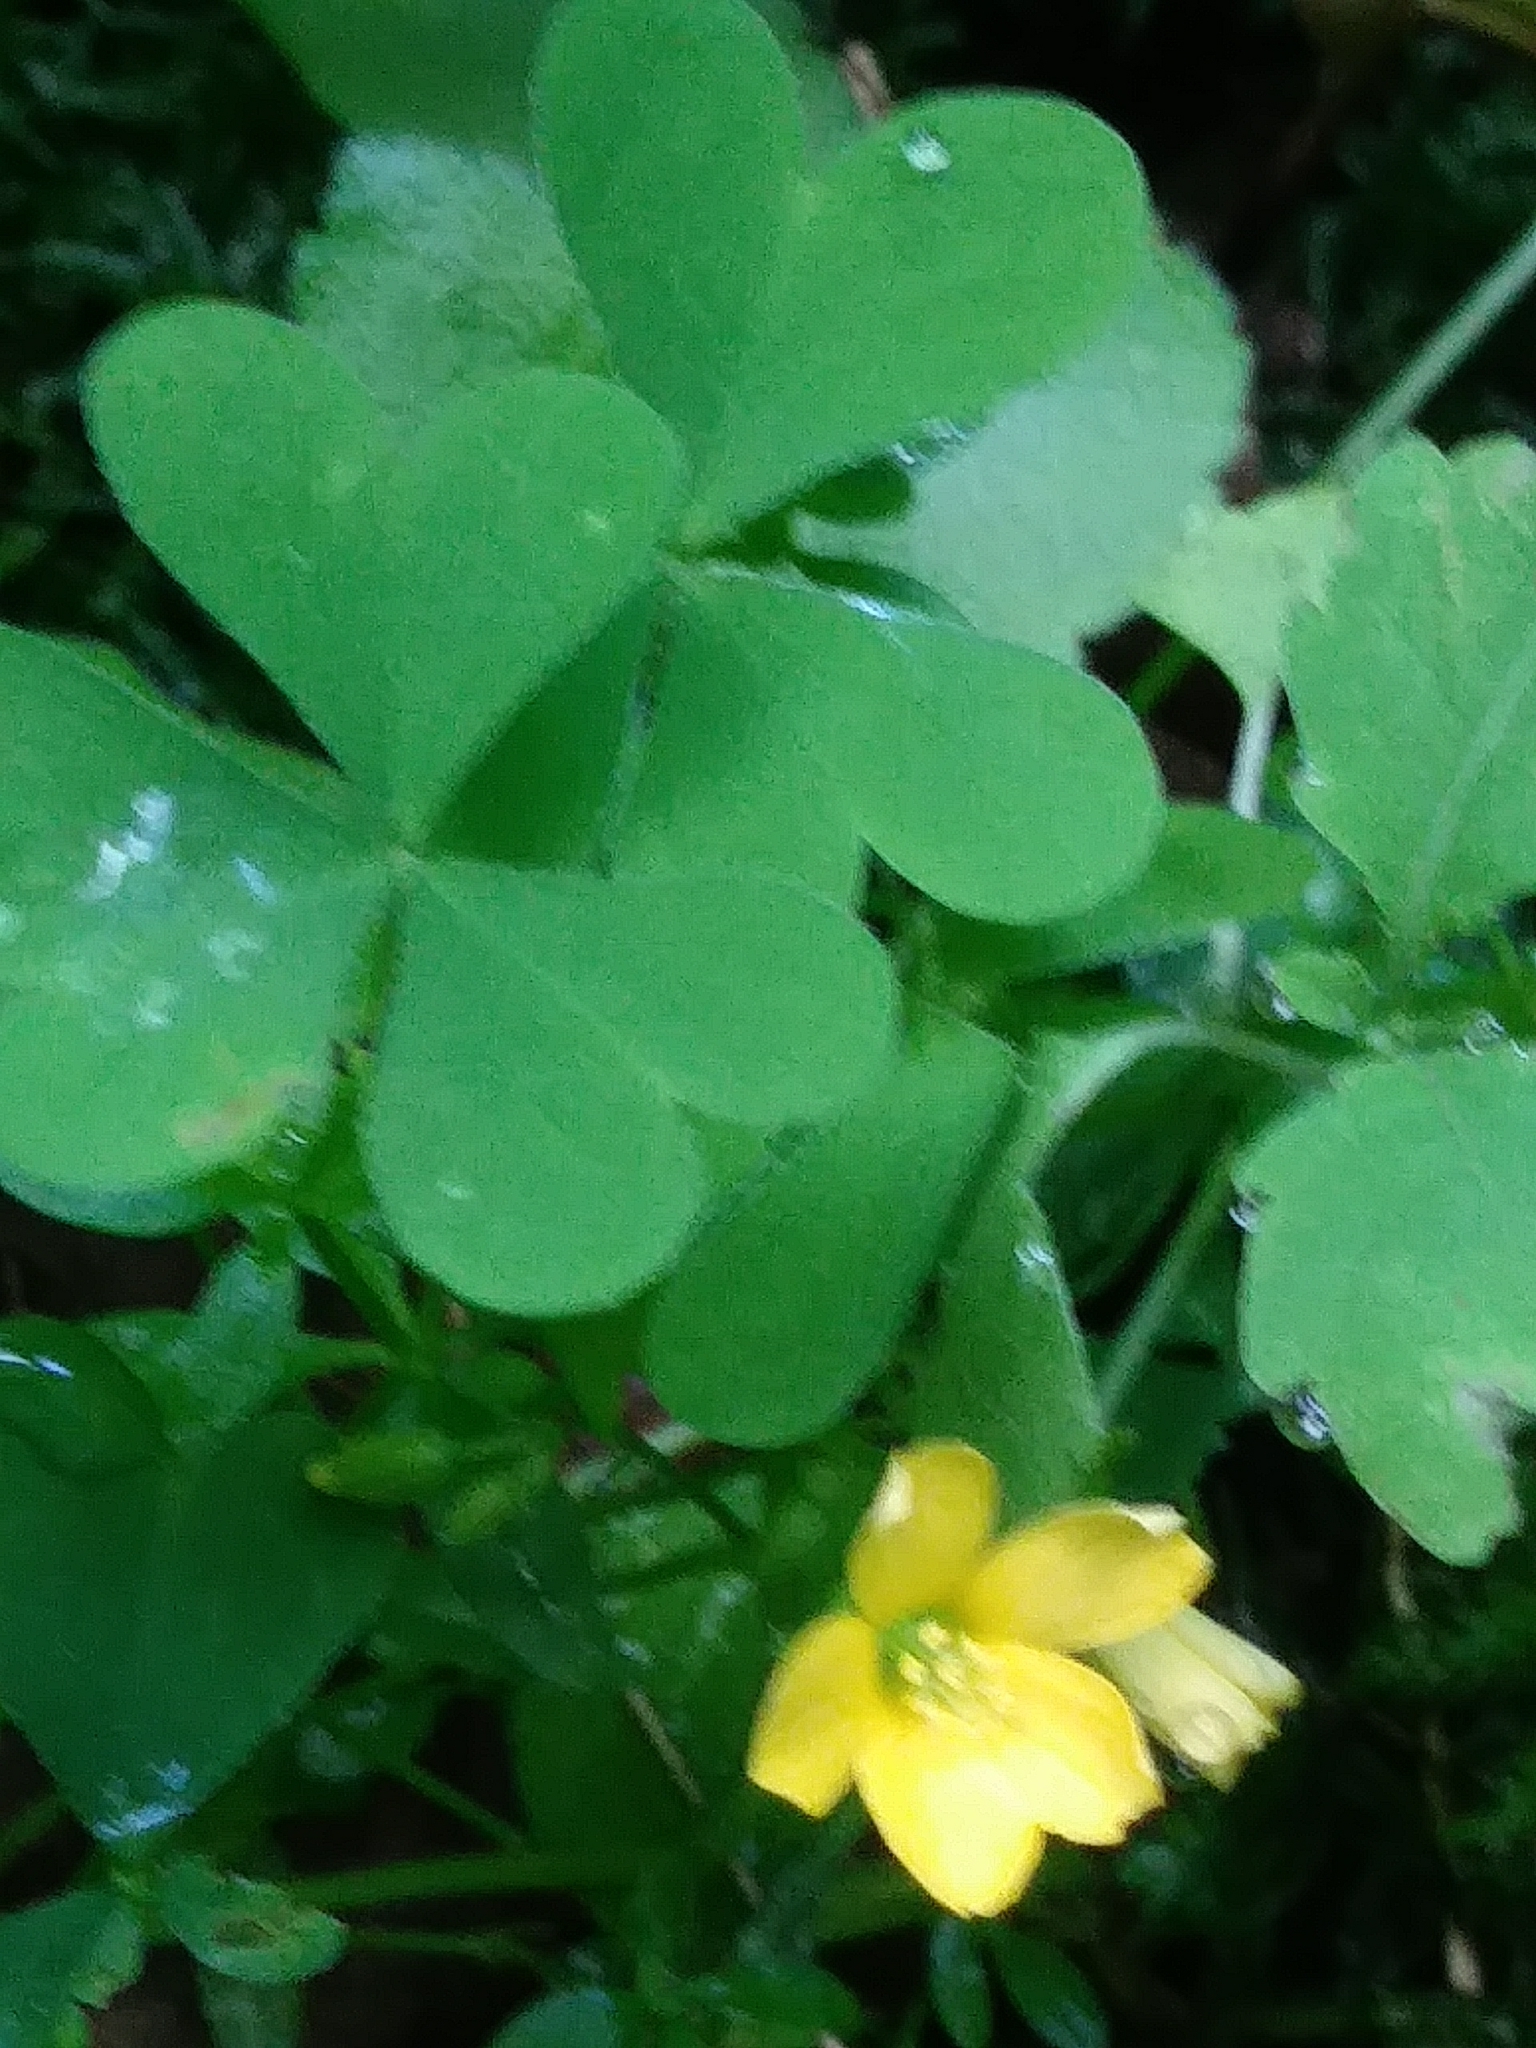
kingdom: Plantae
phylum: Tracheophyta
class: Magnoliopsida
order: Oxalidales
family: Oxalidaceae
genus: Oxalis
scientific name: Oxalis stricta
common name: Upright yellow-sorrel
